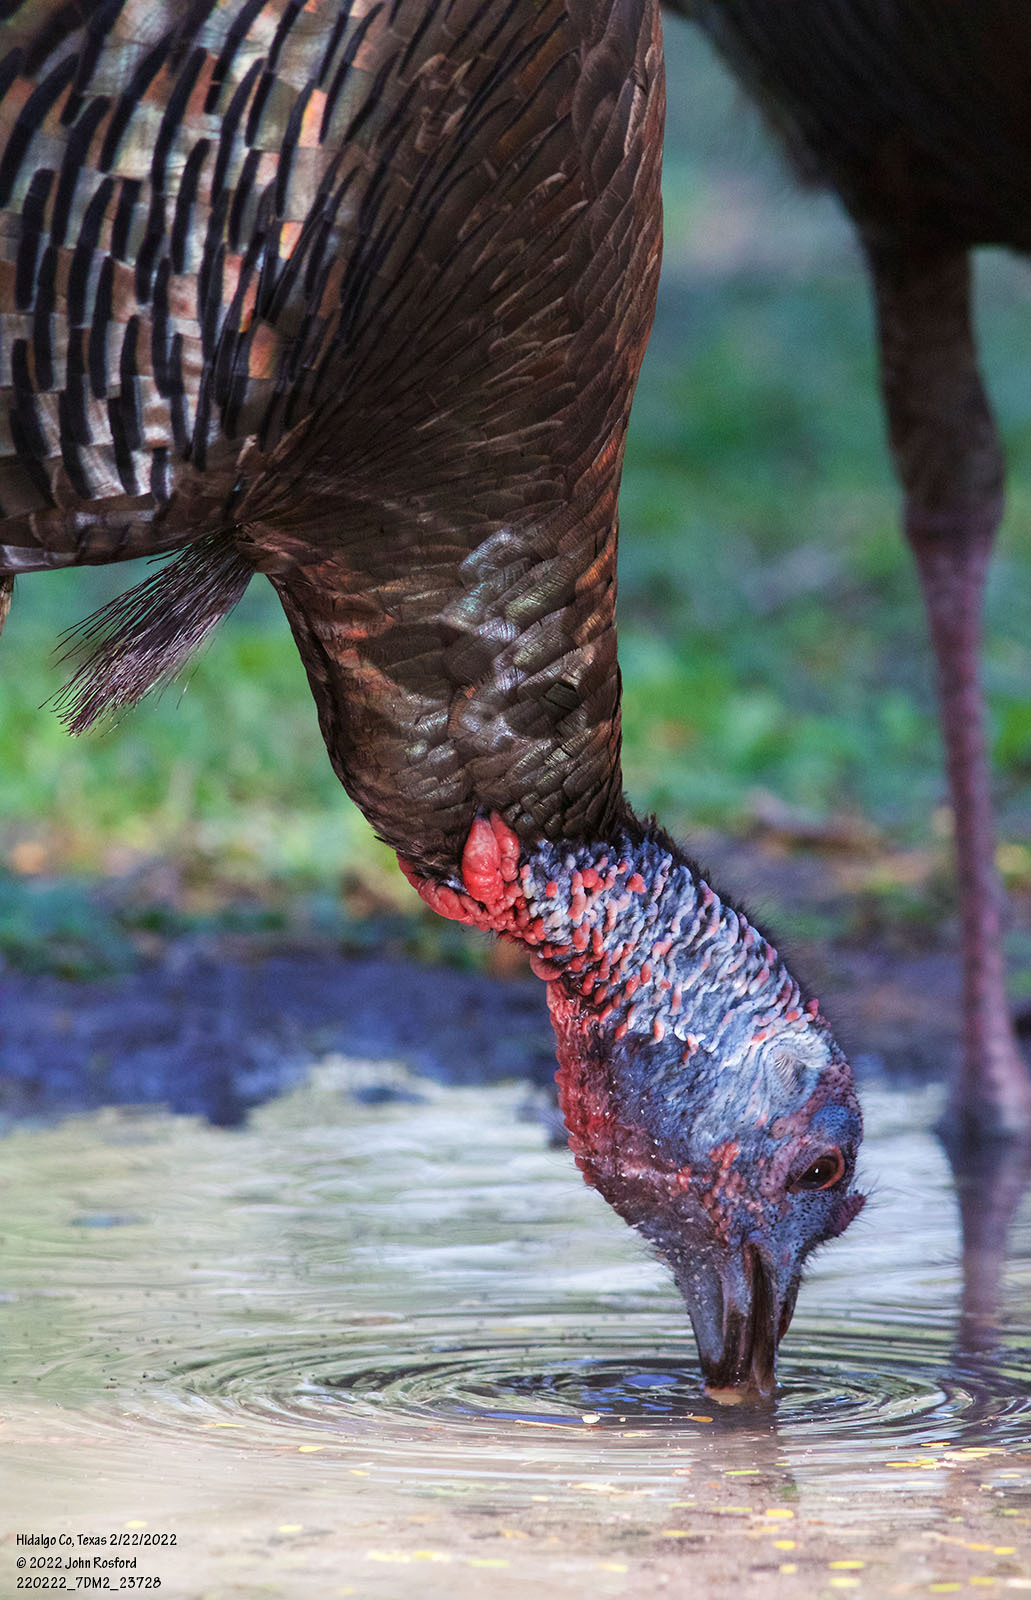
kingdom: Animalia
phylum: Chordata
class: Aves
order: Galliformes
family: Phasianidae
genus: Meleagris
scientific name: Meleagris gallopavo
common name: Wild turkey
